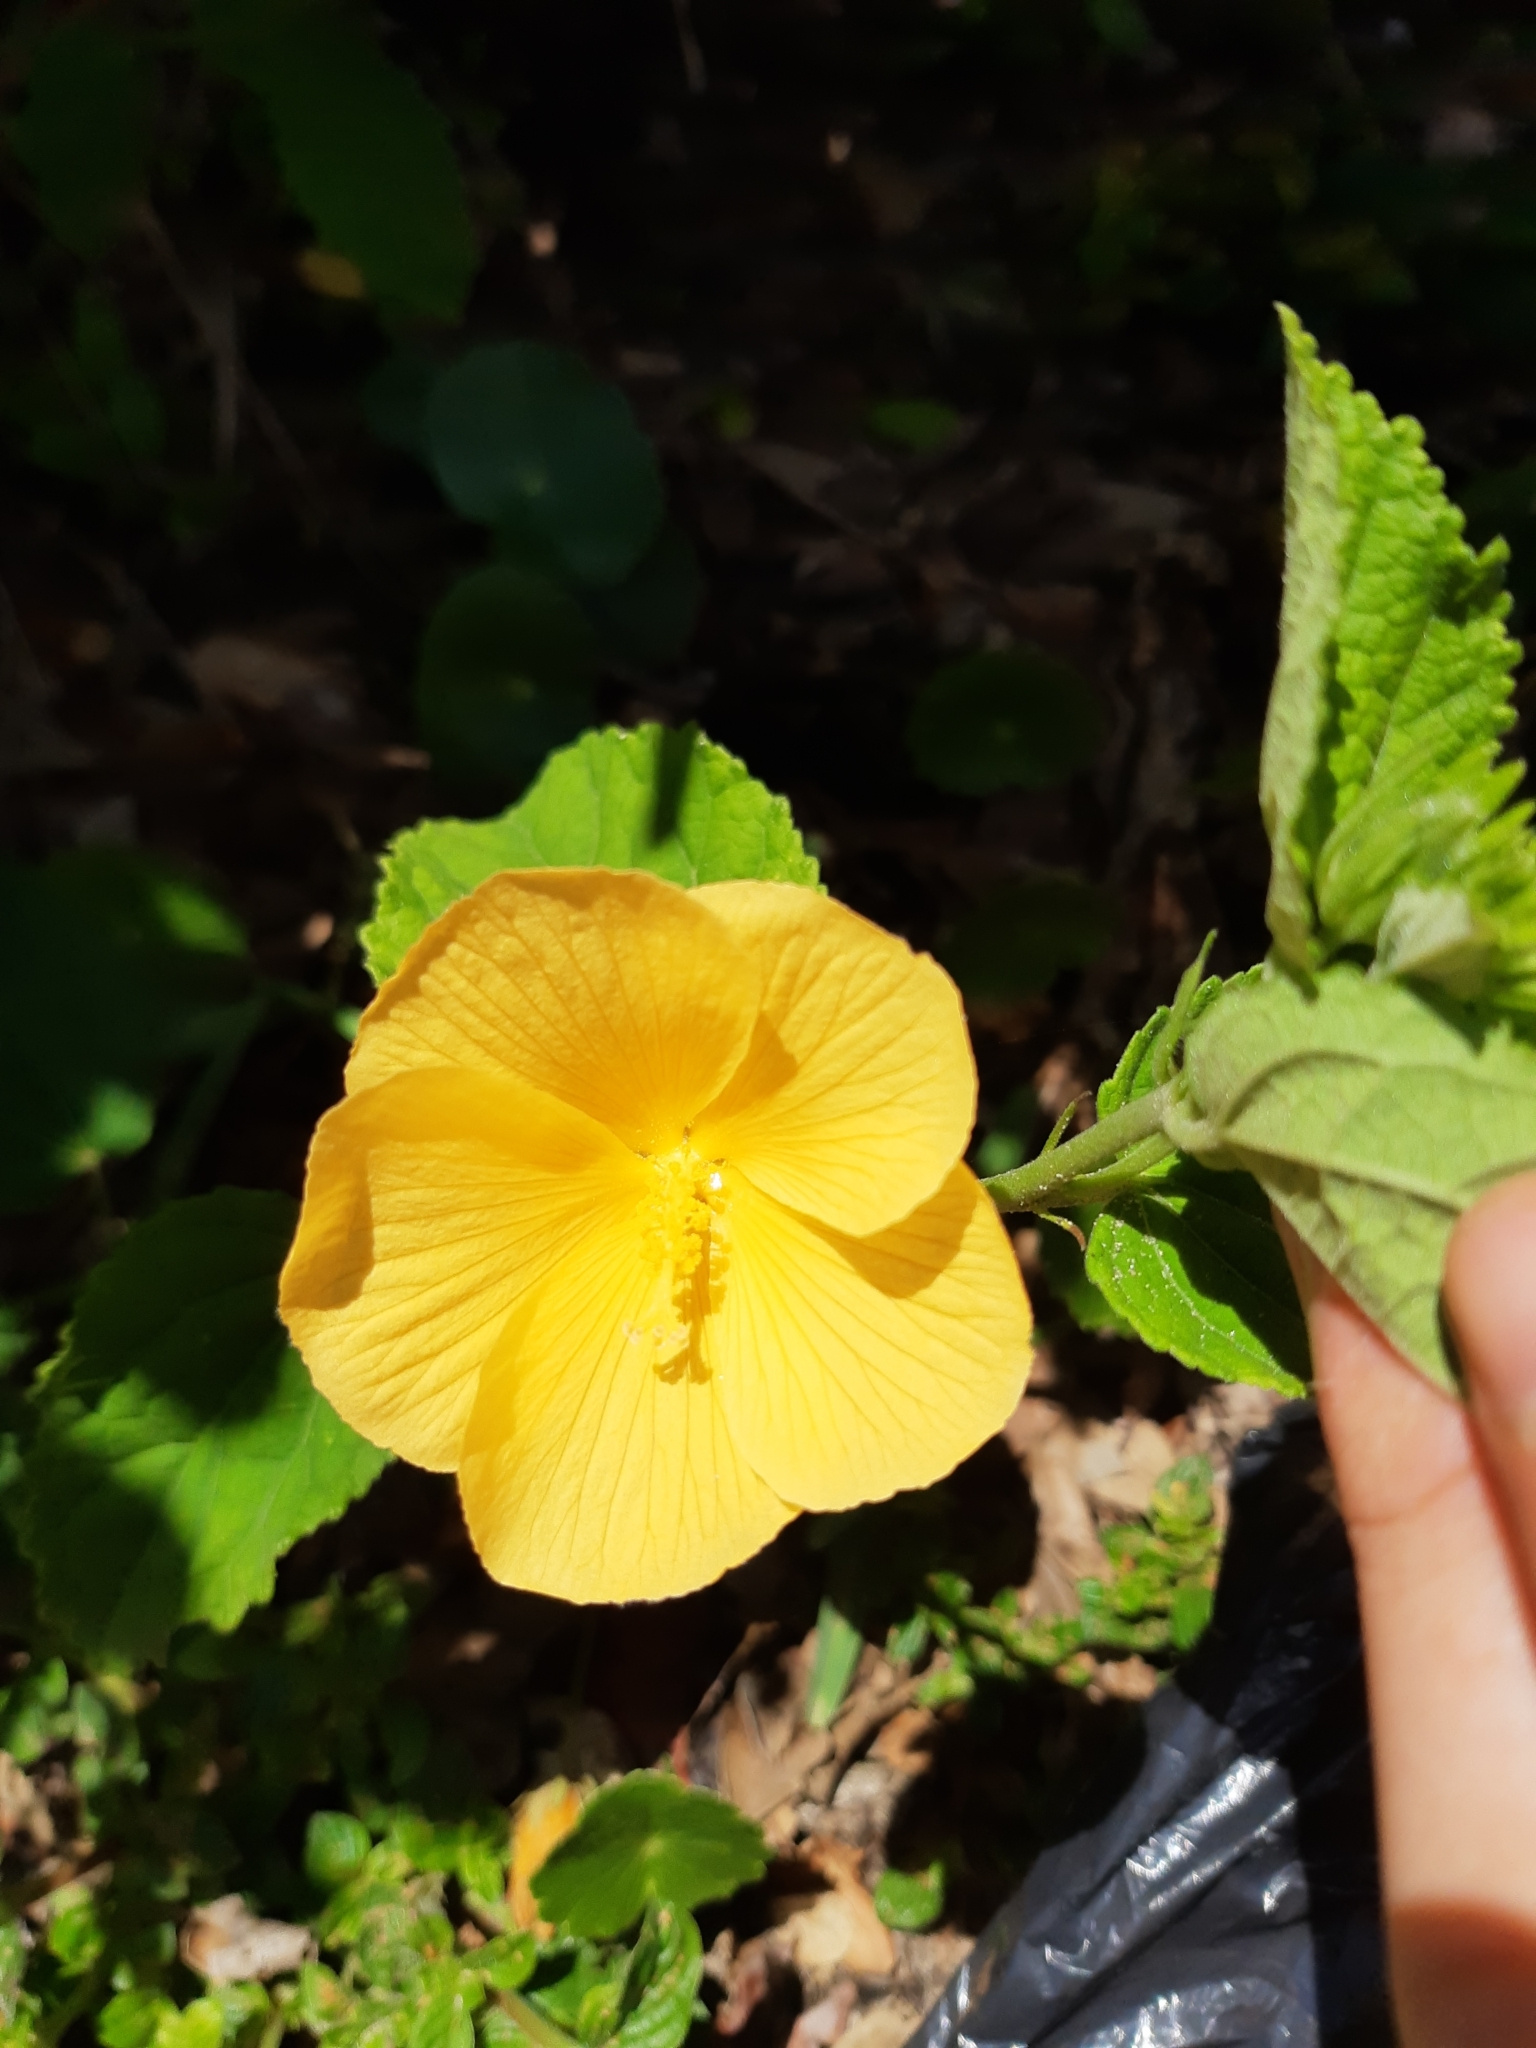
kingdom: Plantae
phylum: Tracheophyta
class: Magnoliopsida
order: Malvales
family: Malvaceae
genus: Pavonia
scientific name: Pavonia communis
